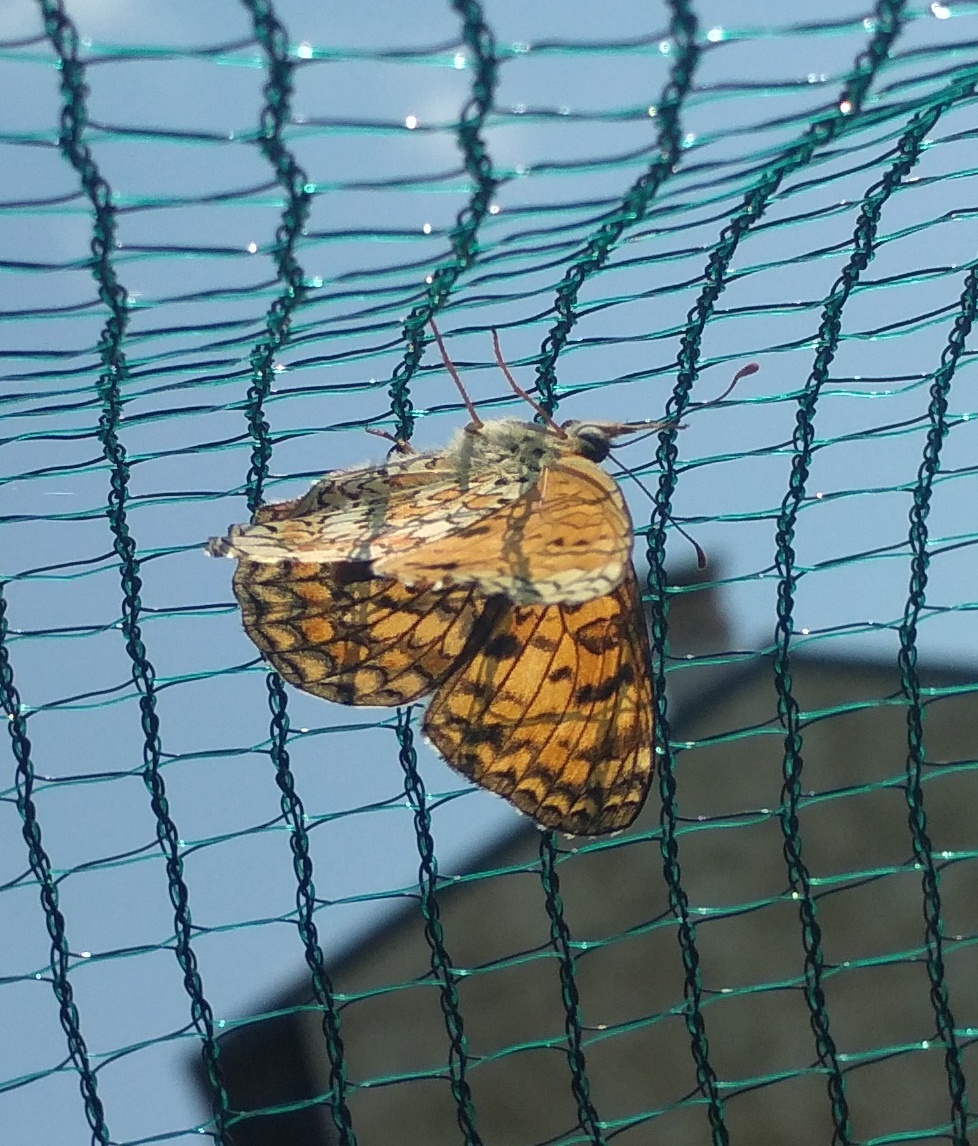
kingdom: Animalia
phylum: Arthropoda
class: Insecta
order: Lepidoptera
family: Nymphalidae
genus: Melitaea
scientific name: Melitaea phoebe
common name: Knapweed fritillary
